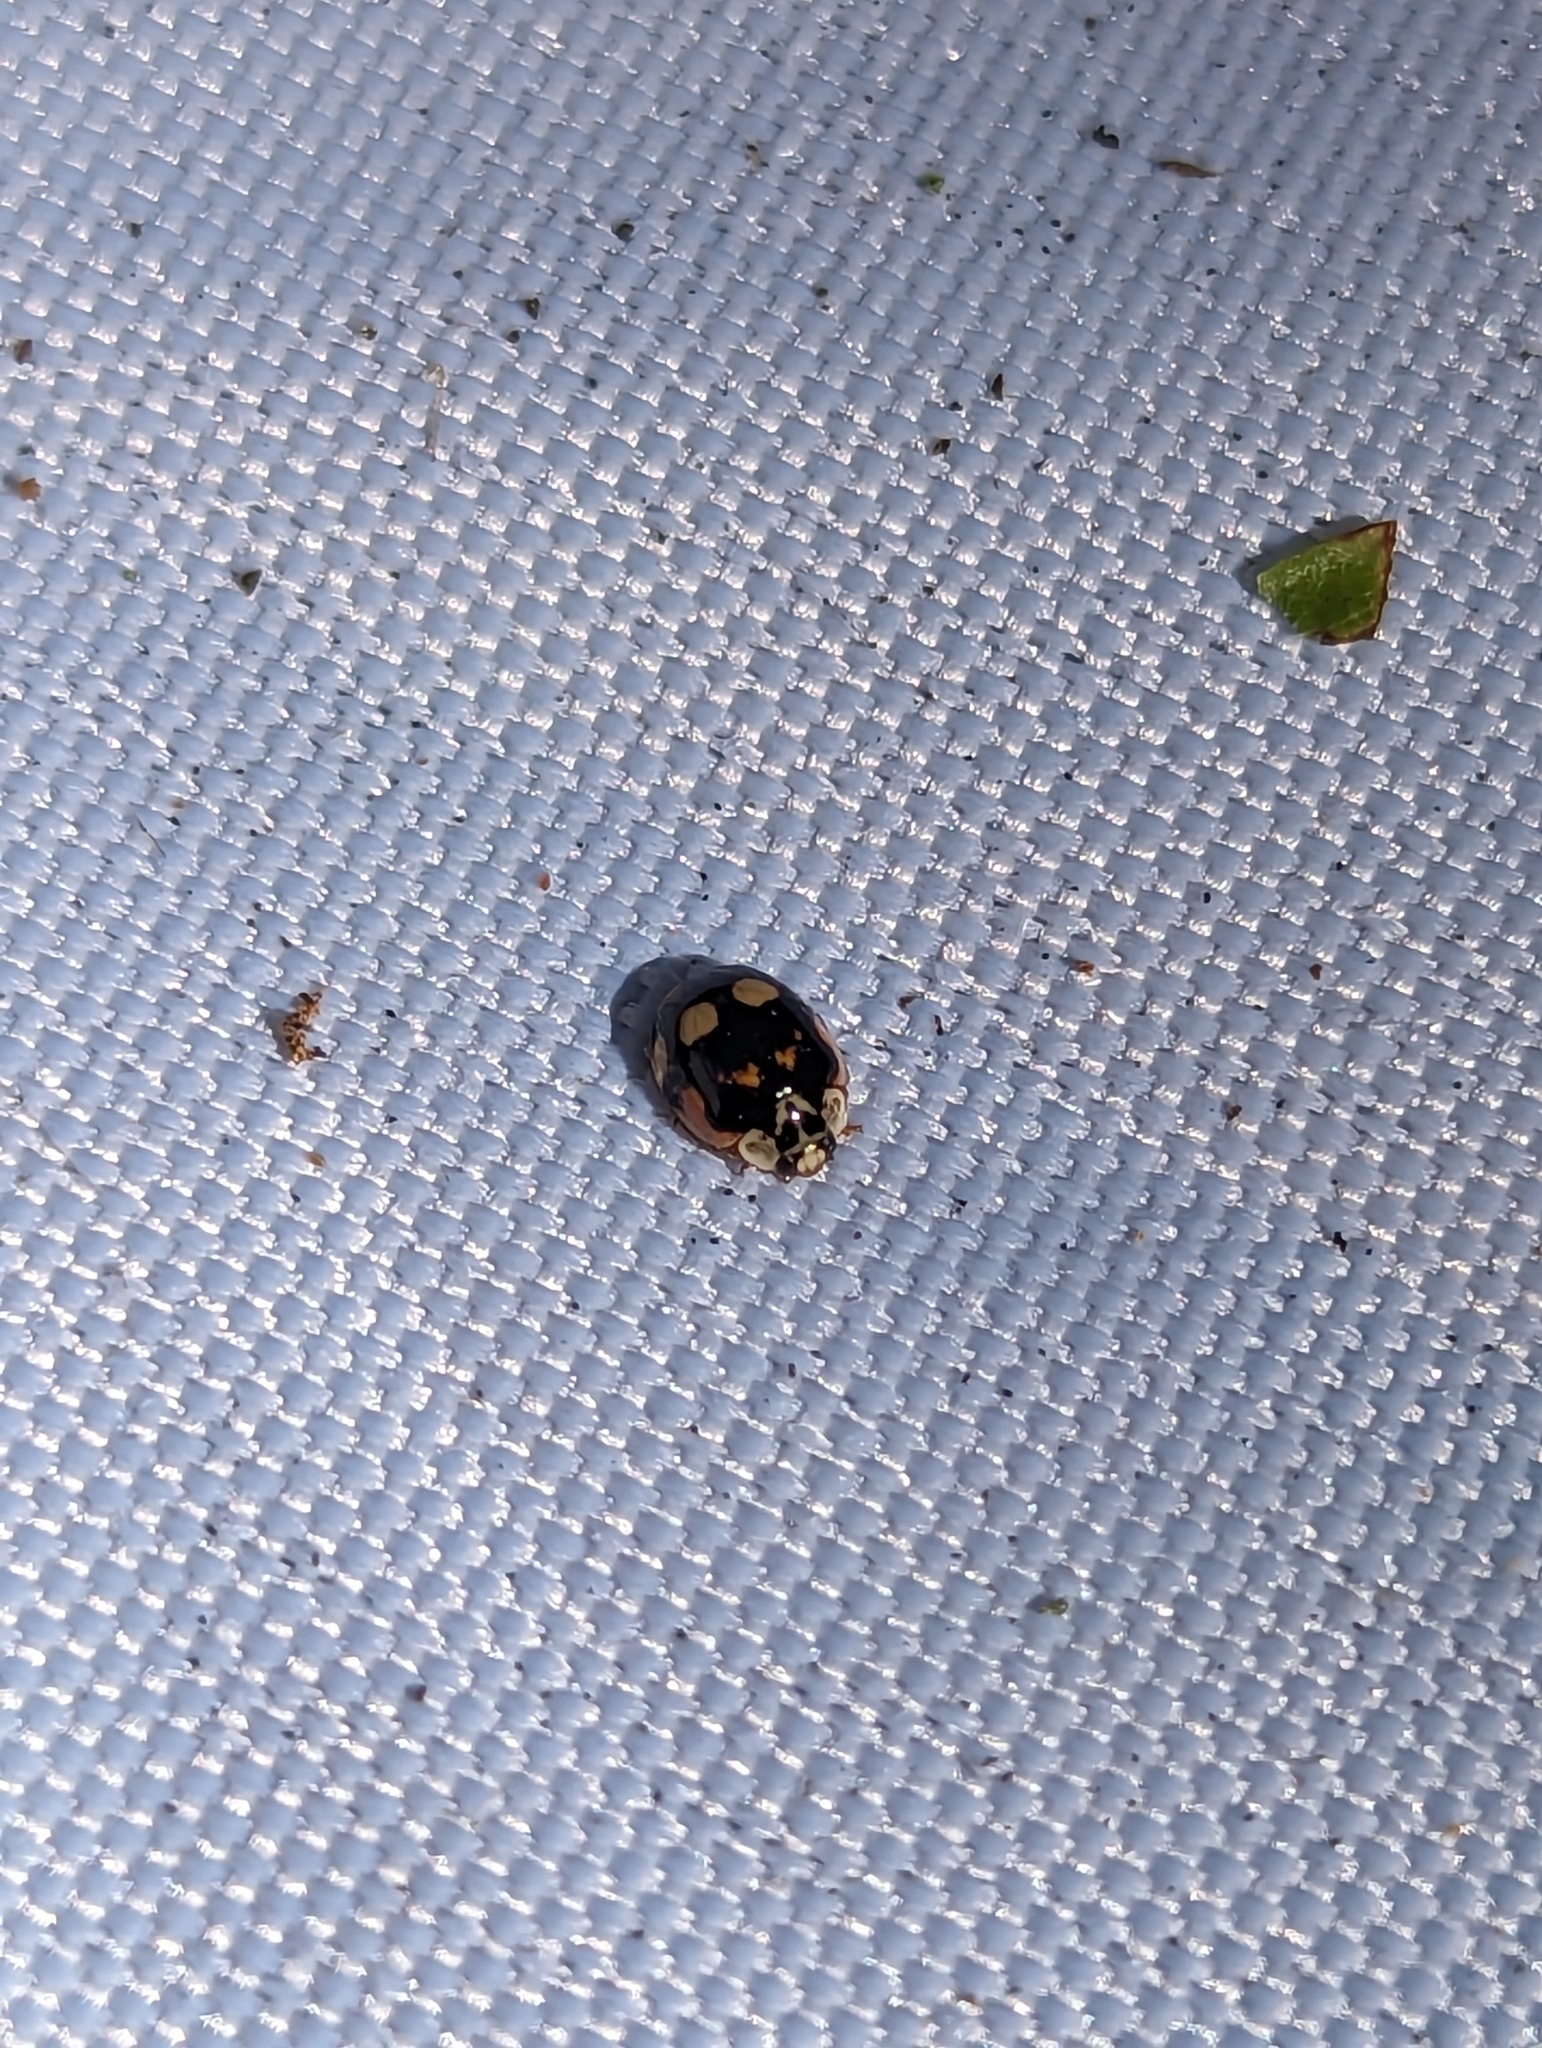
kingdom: Animalia
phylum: Arthropoda
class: Insecta
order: Coleoptera
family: Coccinellidae
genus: Adalia
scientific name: Adalia decempunctata
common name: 10-spot ladybird
